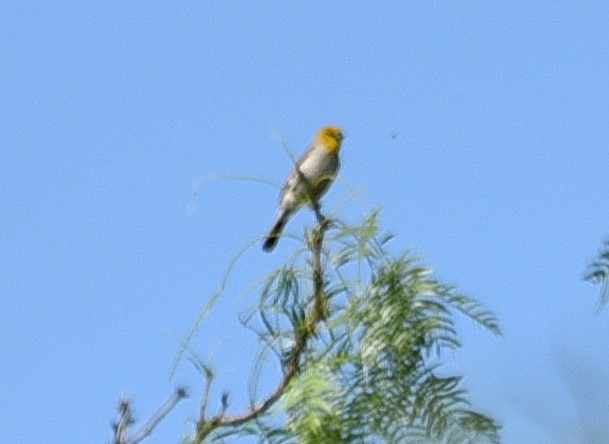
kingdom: Animalia
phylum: Chordata
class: Aves
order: Passeriformes
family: Remizidae
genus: Auriparus
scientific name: Auriparus flaviceps
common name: Verdin
